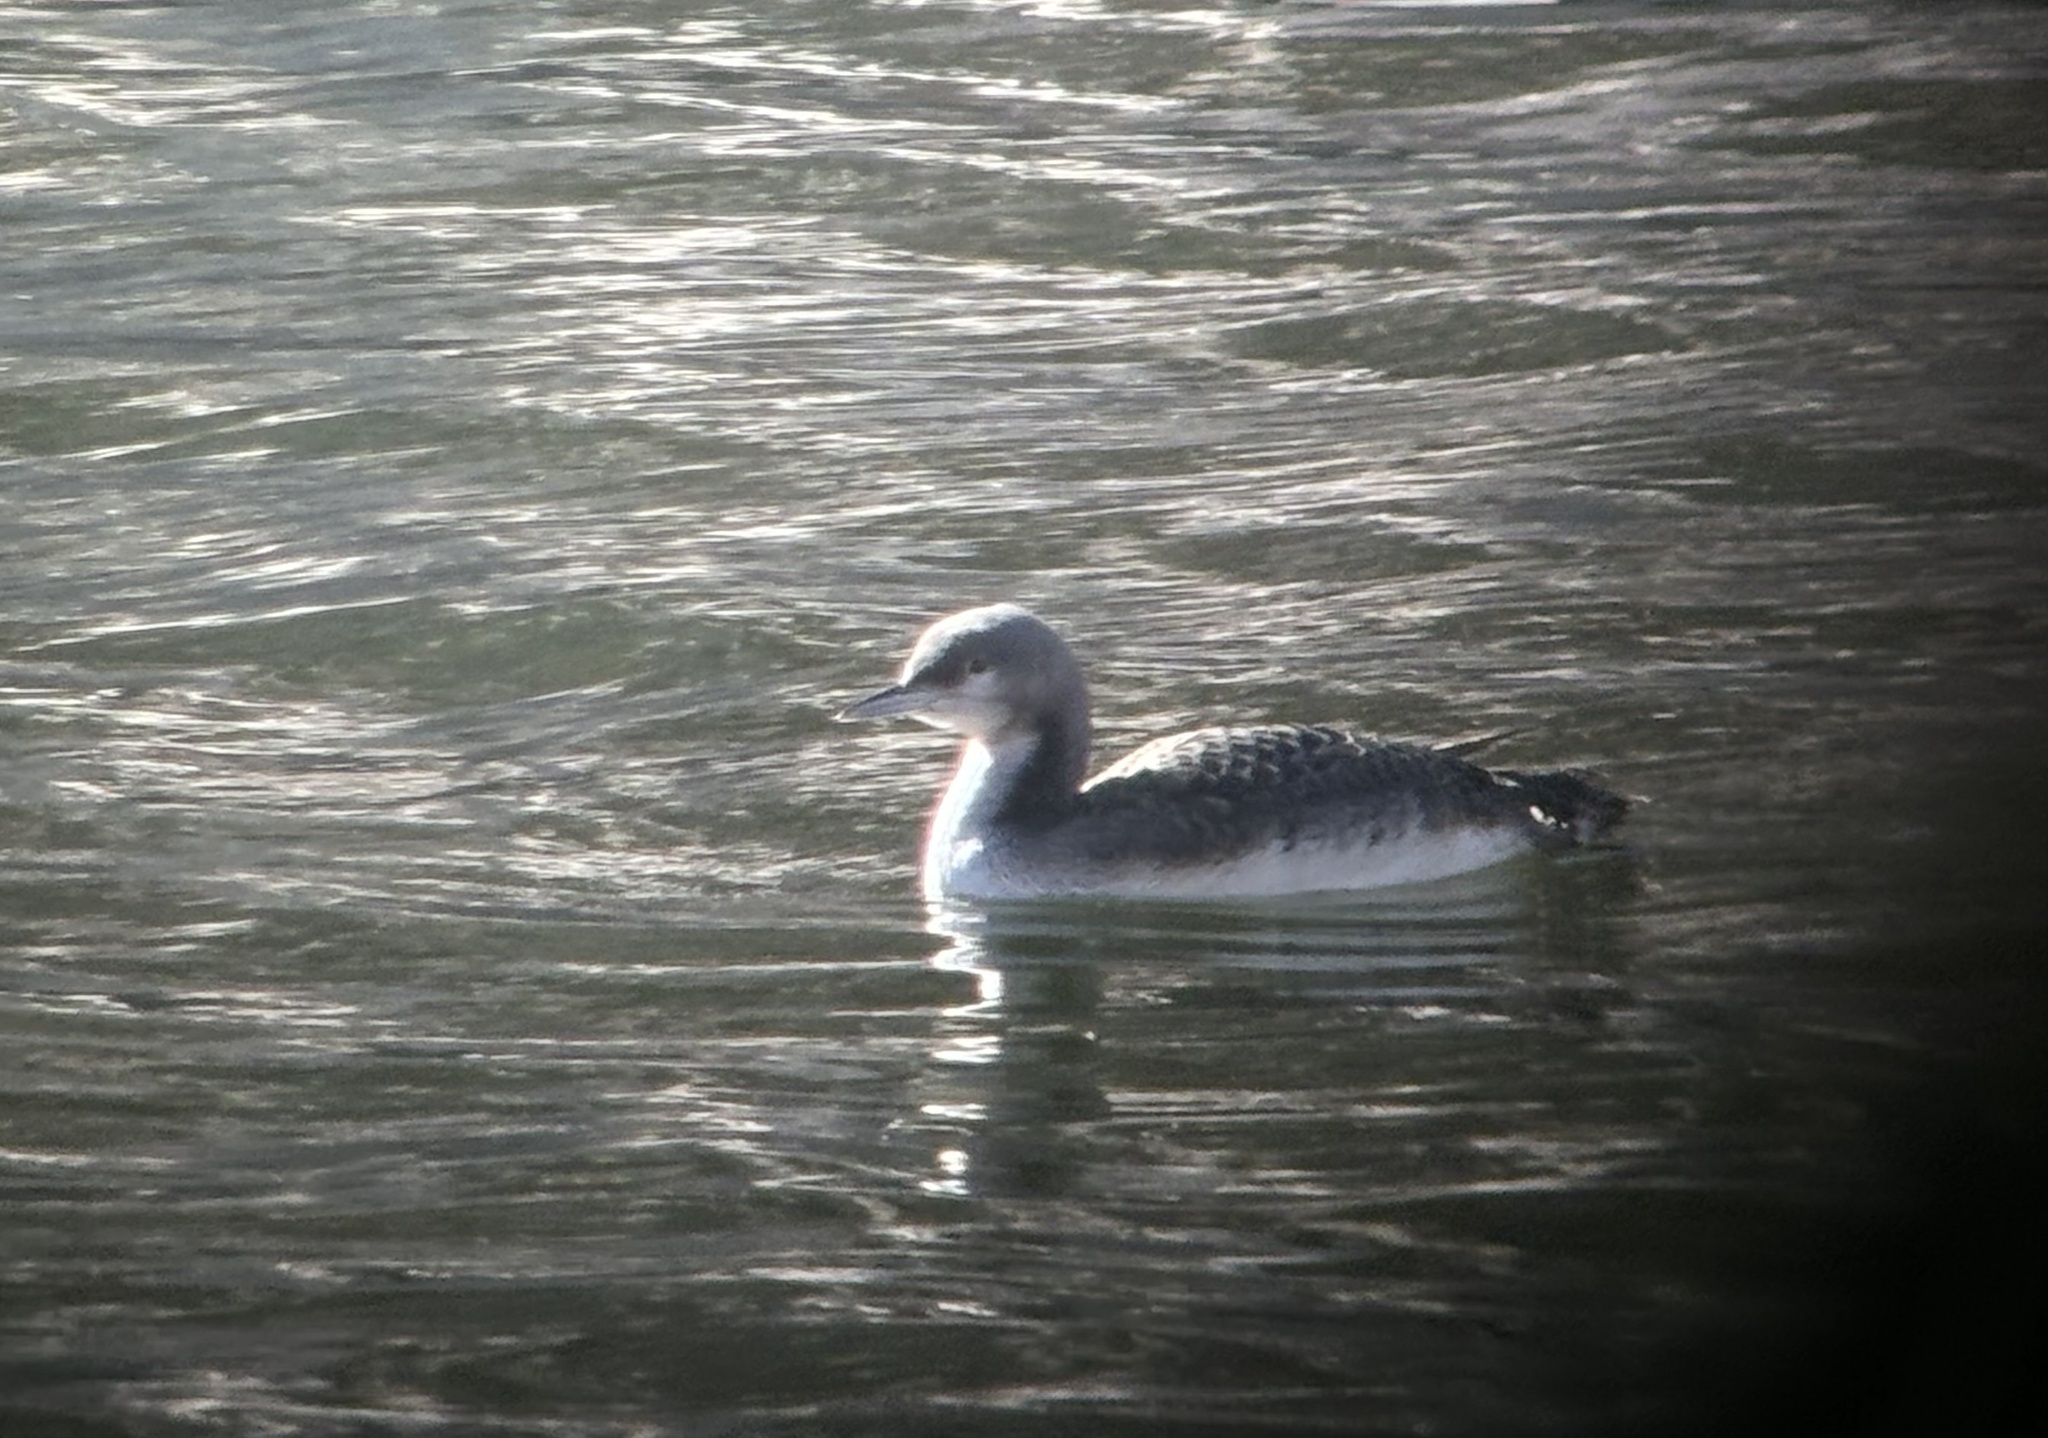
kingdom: Animalia
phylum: Chordata
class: Aves
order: Gaviiformes
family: Gaviidae
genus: Gavia
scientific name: Gavia pacifica
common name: Pacific loon
